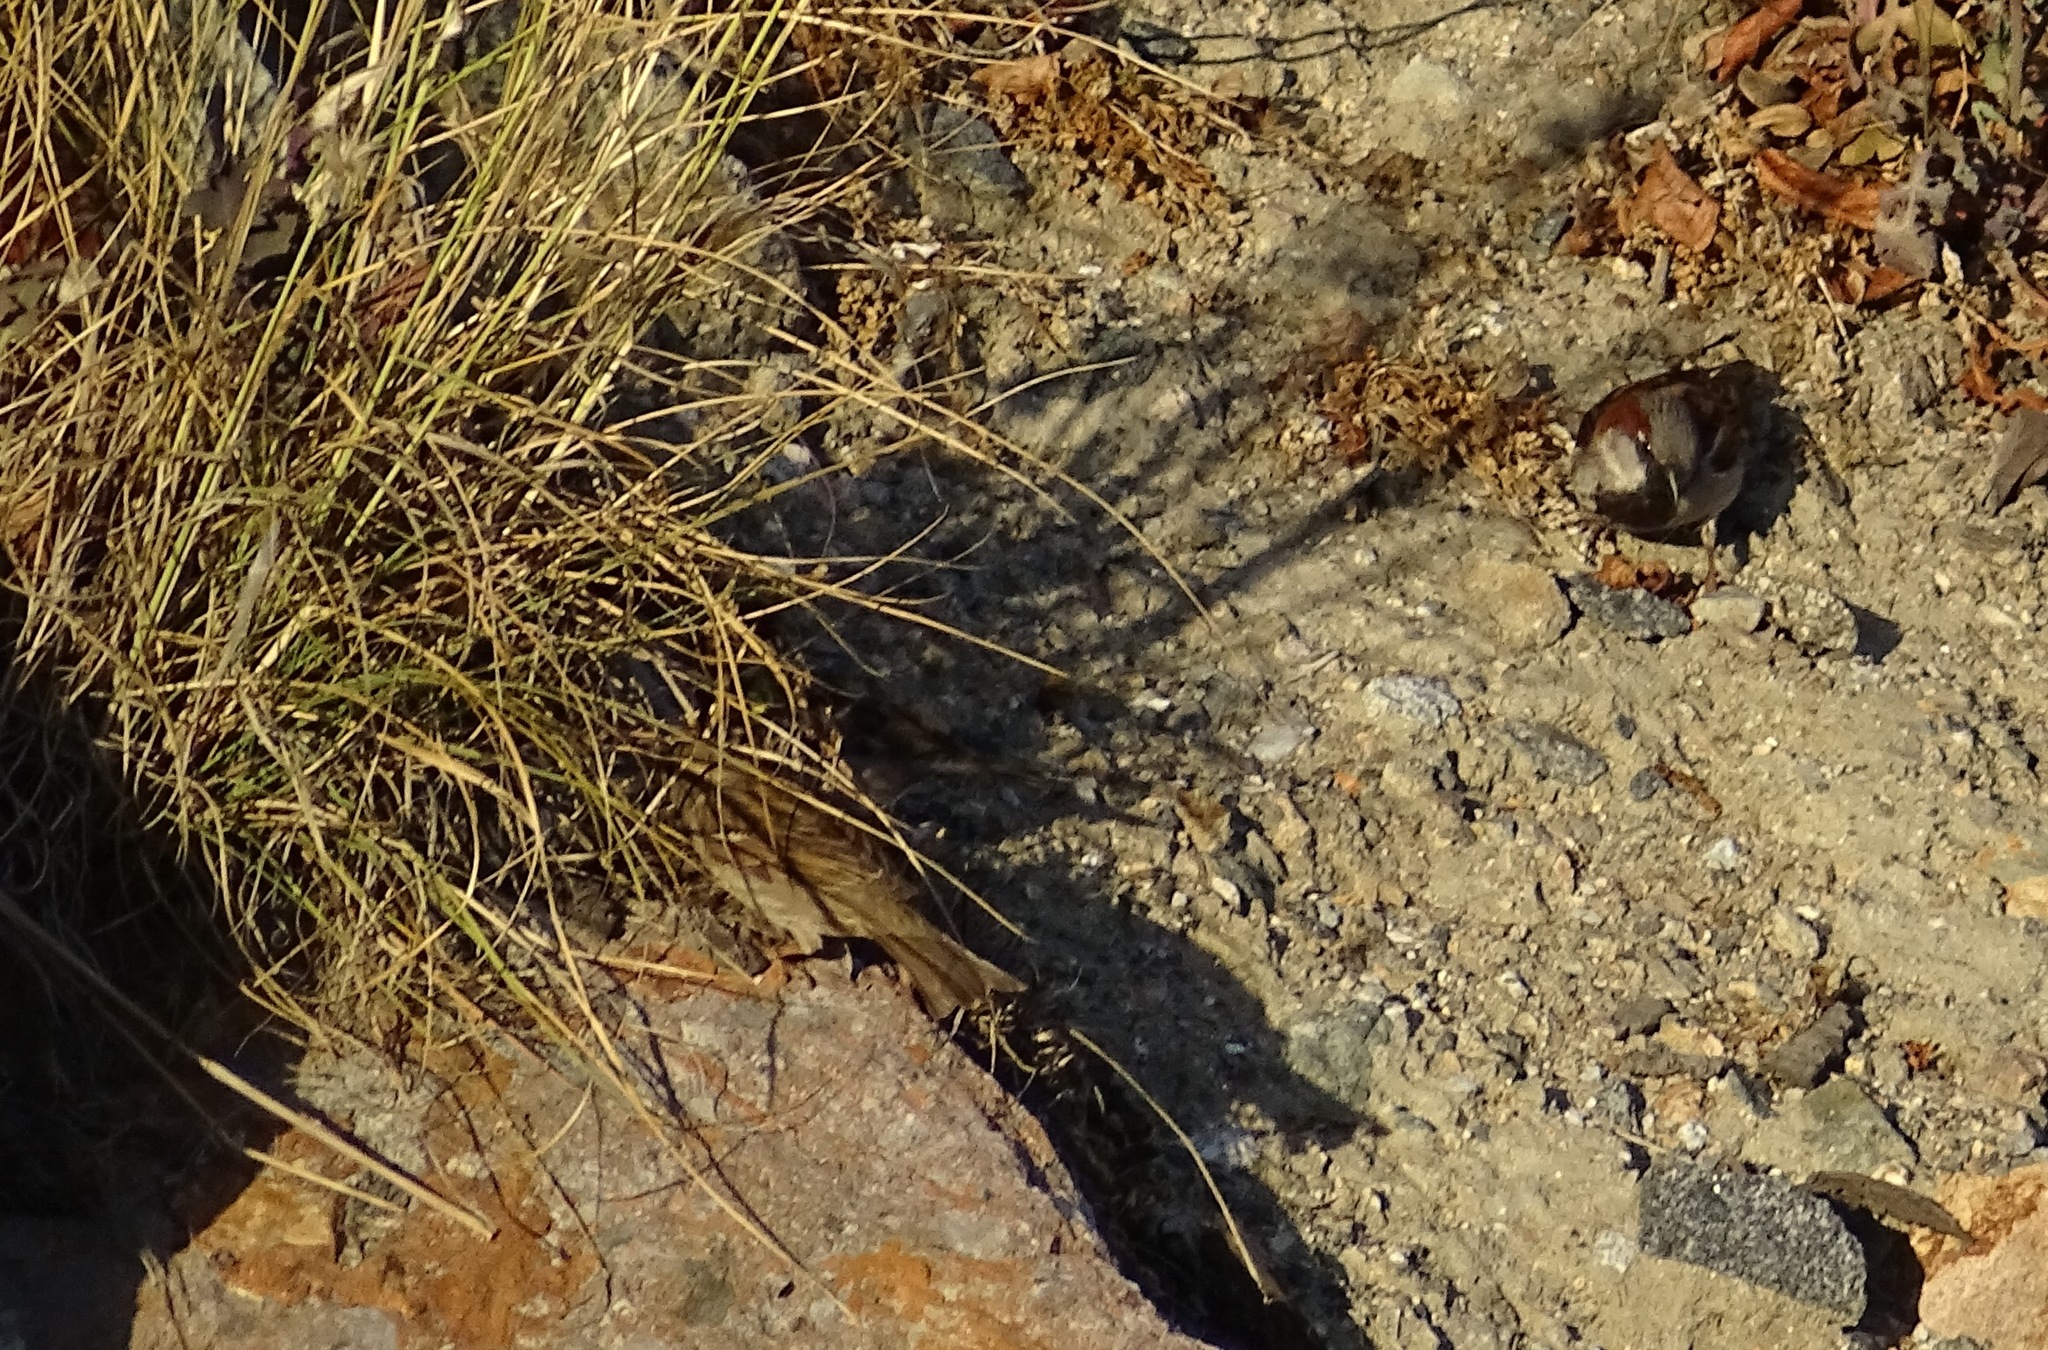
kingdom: Animalia
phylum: Chordata
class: Aves
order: Passeriformes
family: Passeridae
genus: Passer
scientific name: Passer domesticus
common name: House sparrow
